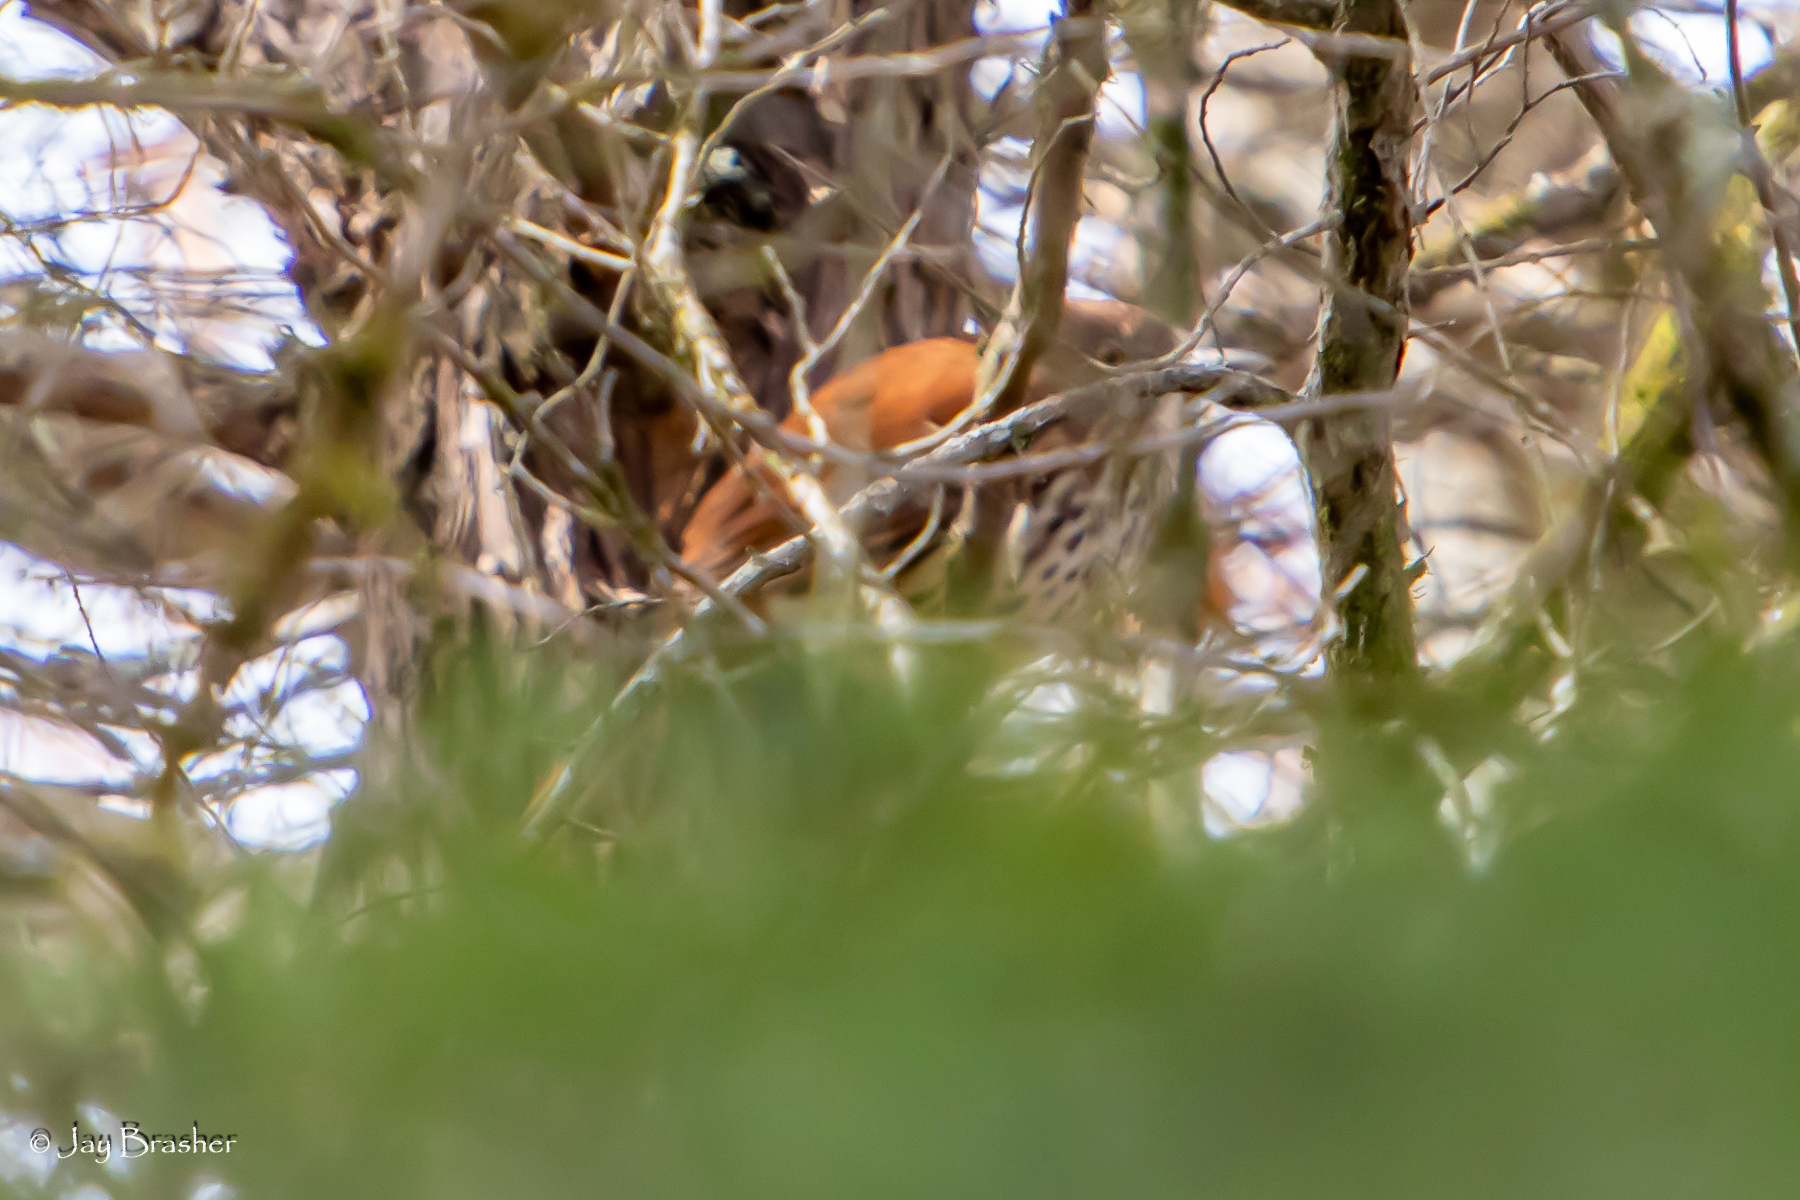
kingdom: Animalia
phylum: Chordata
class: Aves
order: Passeriformes
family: Mimidae
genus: Toxostoma
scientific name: Toxostoma rufum
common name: Brown thrasher
